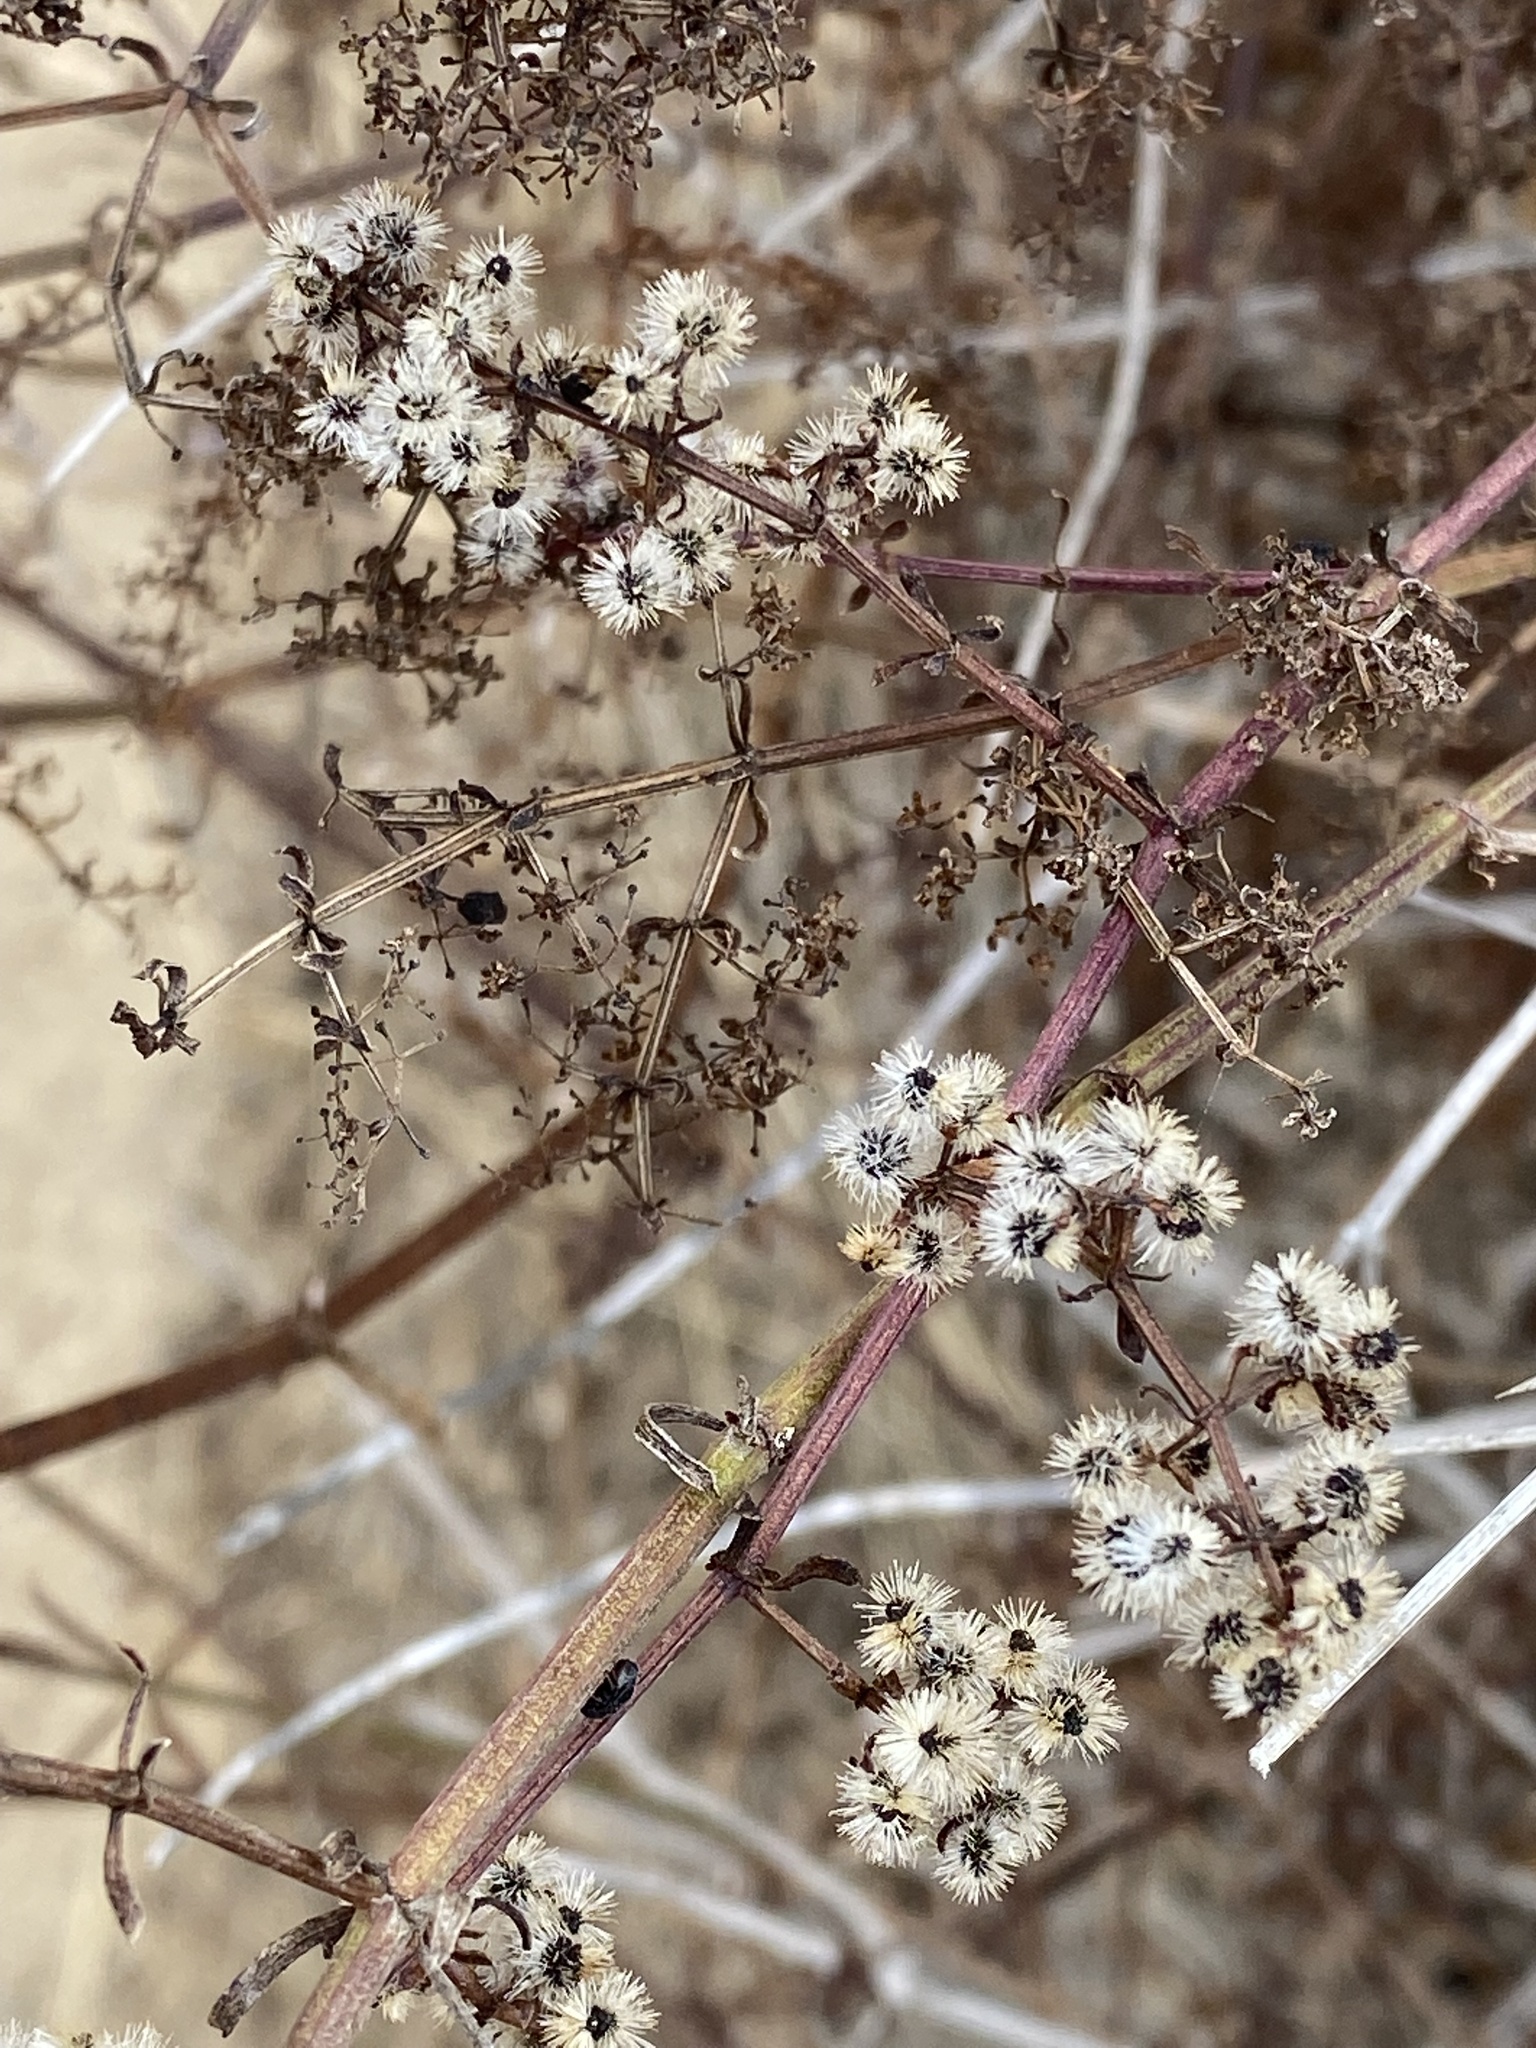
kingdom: Plantae
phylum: Tracheophyta
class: Magnoliopsida
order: Gentianales
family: Rubiaceae
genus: Galium
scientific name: Galium angustifolium
